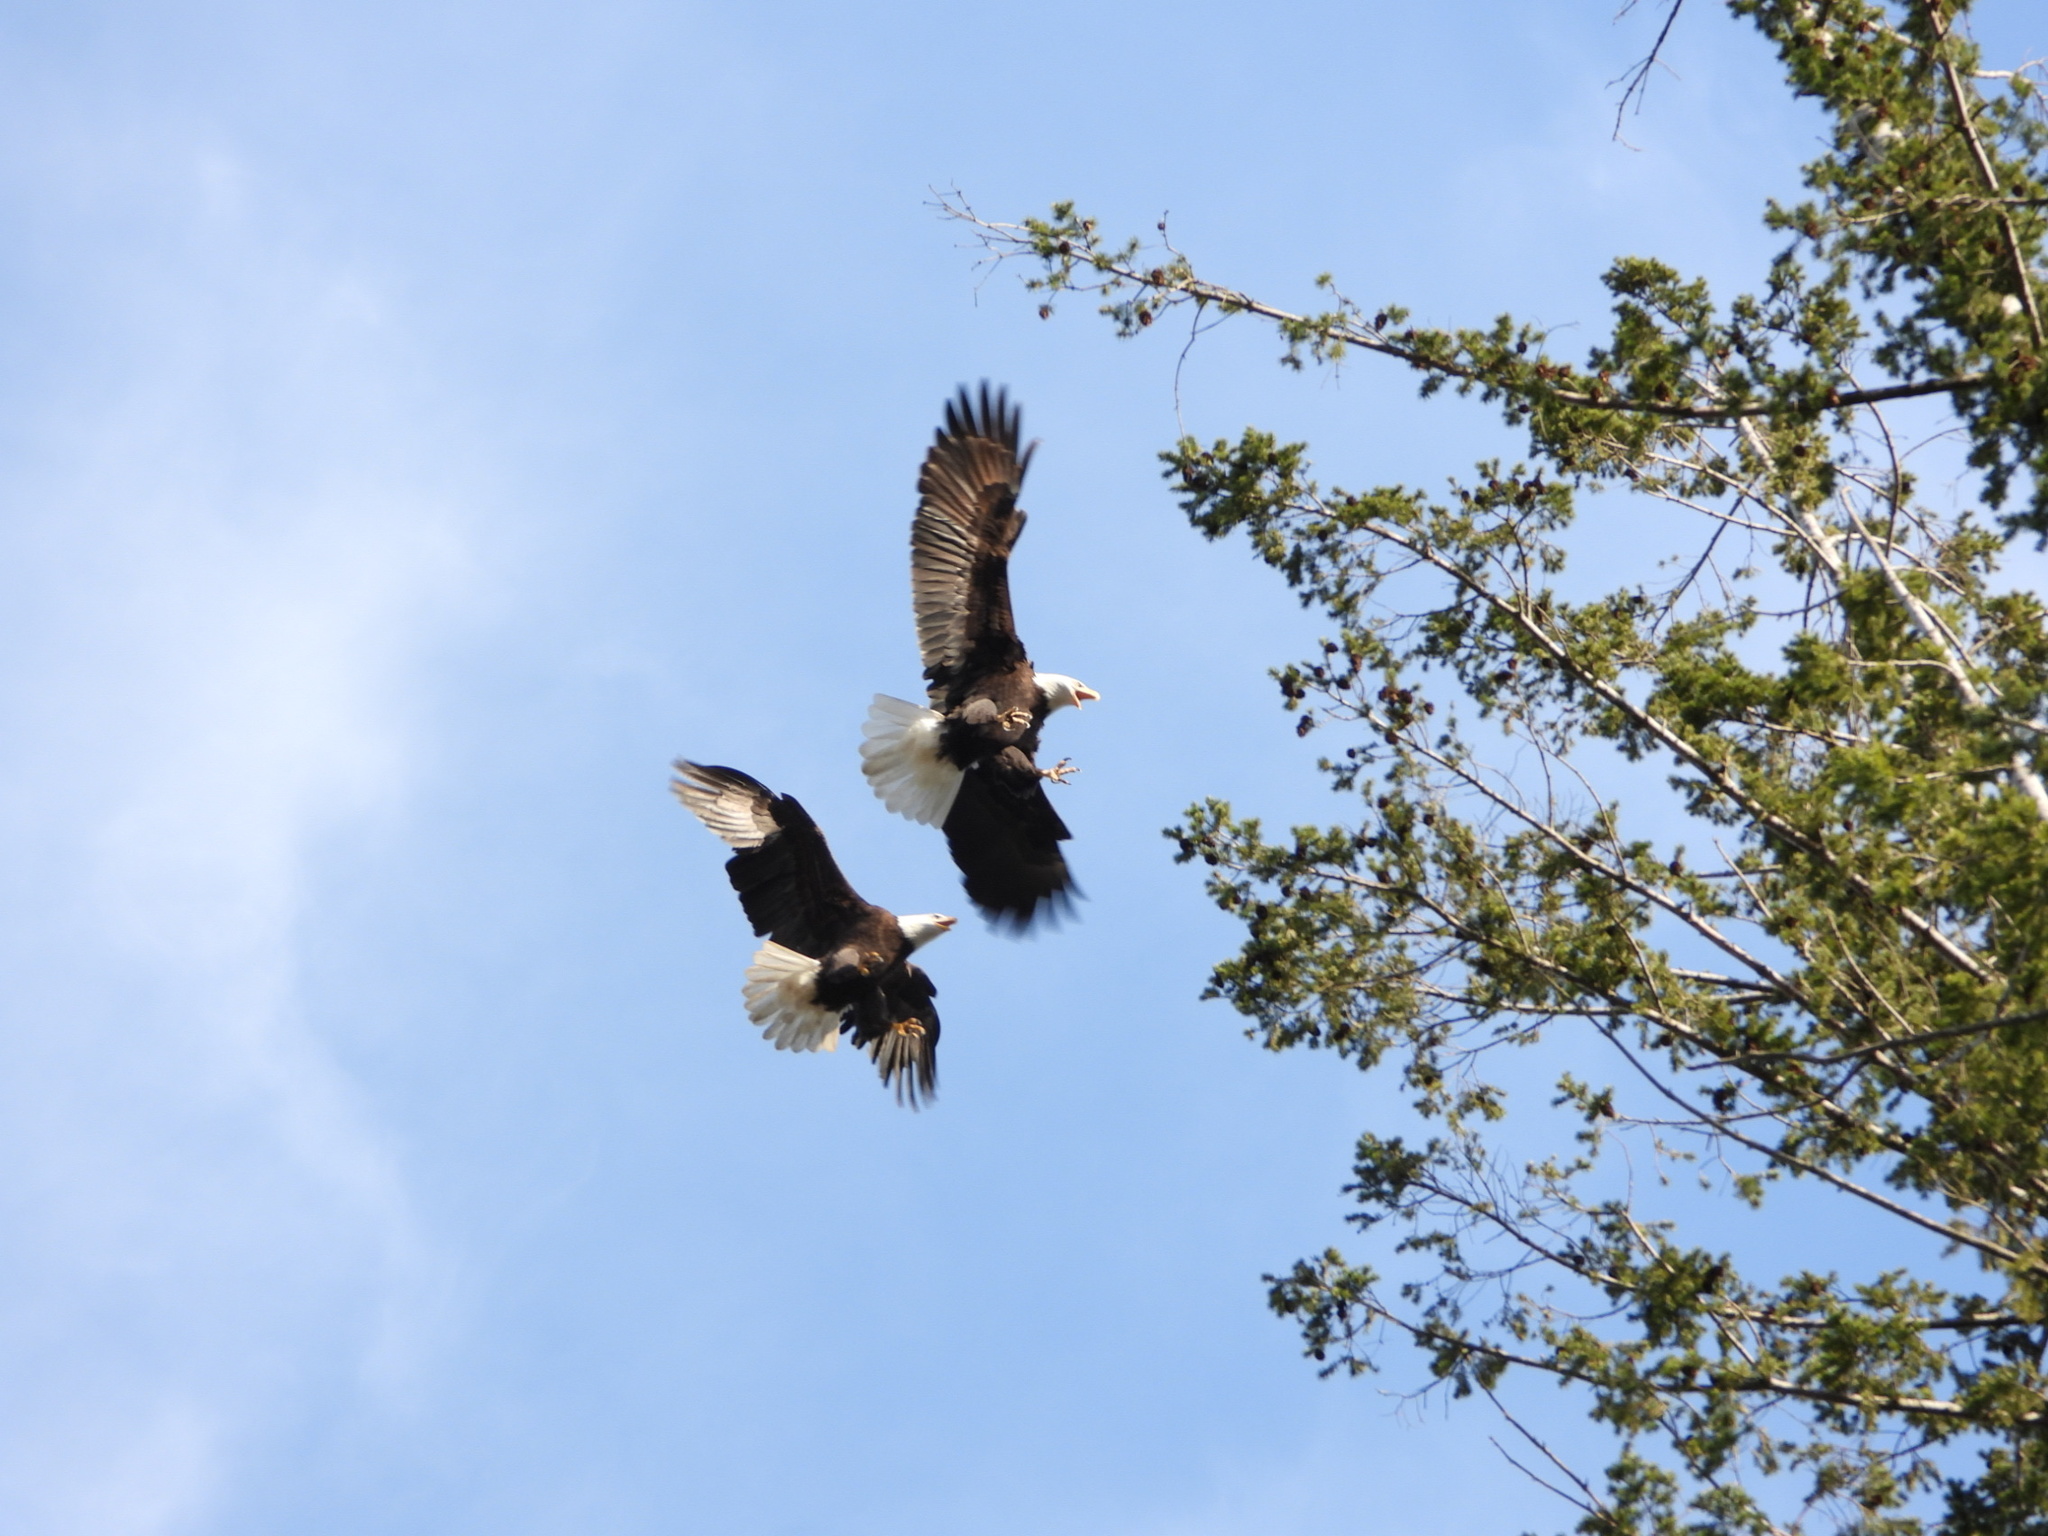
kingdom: Animalia
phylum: Chordata
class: Aves
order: Accipitriformes
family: Accipitridae
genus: Haliaeetus
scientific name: Haliaeetus leucocephalus
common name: Bald eagle
